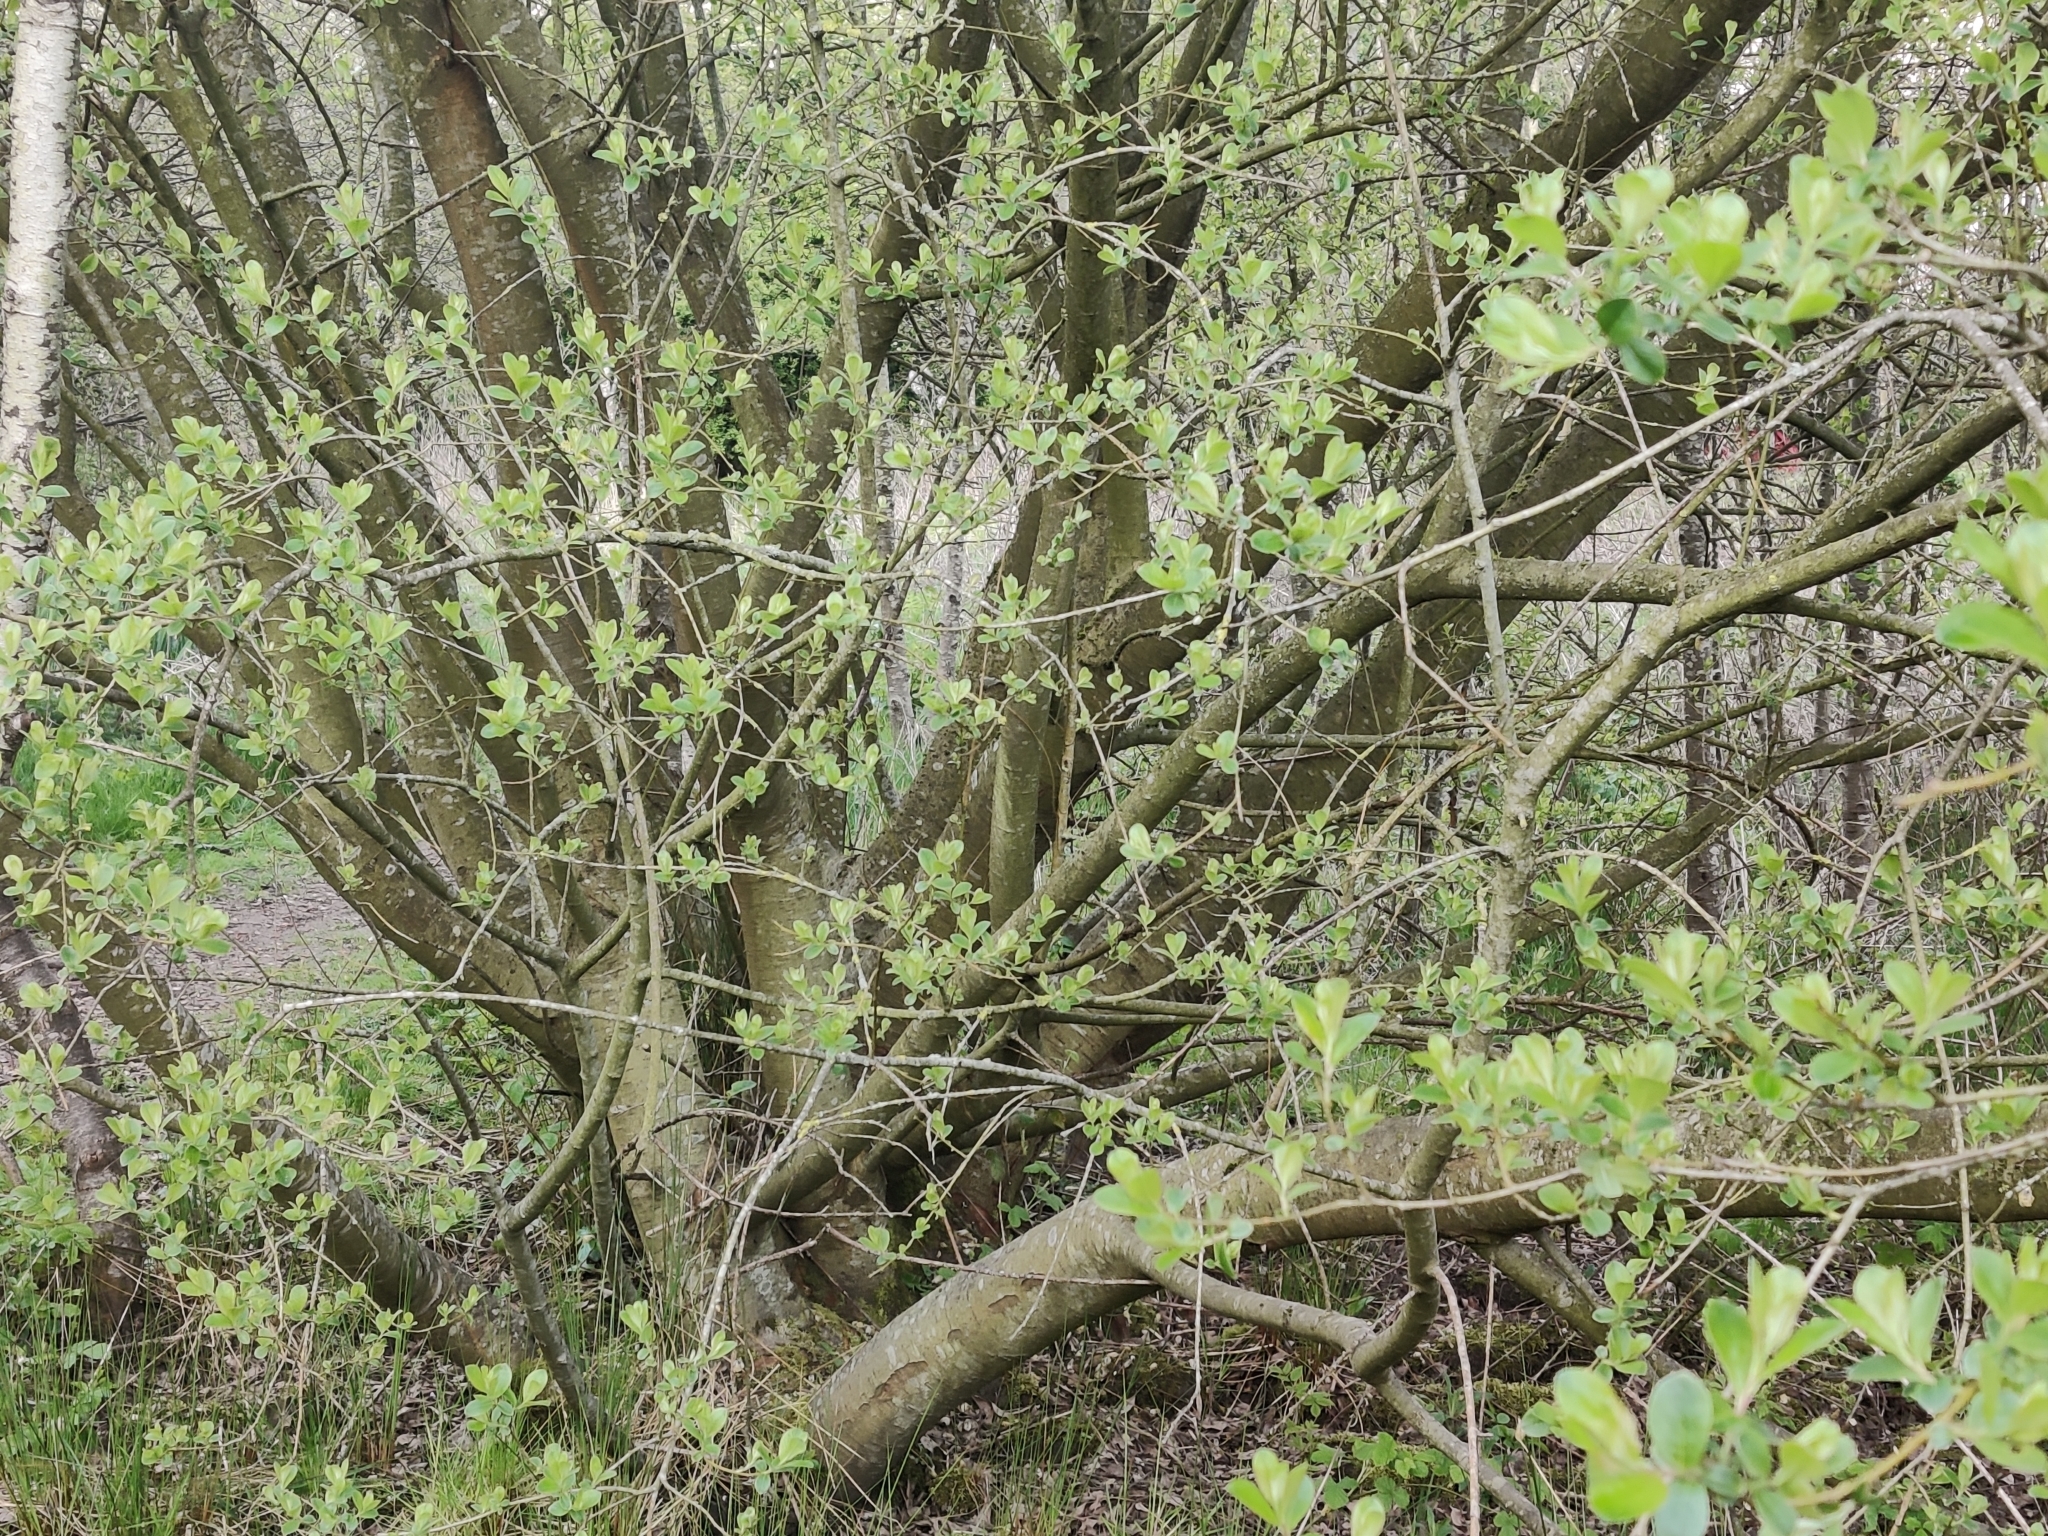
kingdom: Plantae
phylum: Tracheophyta
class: Magnoliopsida
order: Malpighiales
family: Salicaceae
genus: Salix
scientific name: Salix caprea
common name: Goat willow
